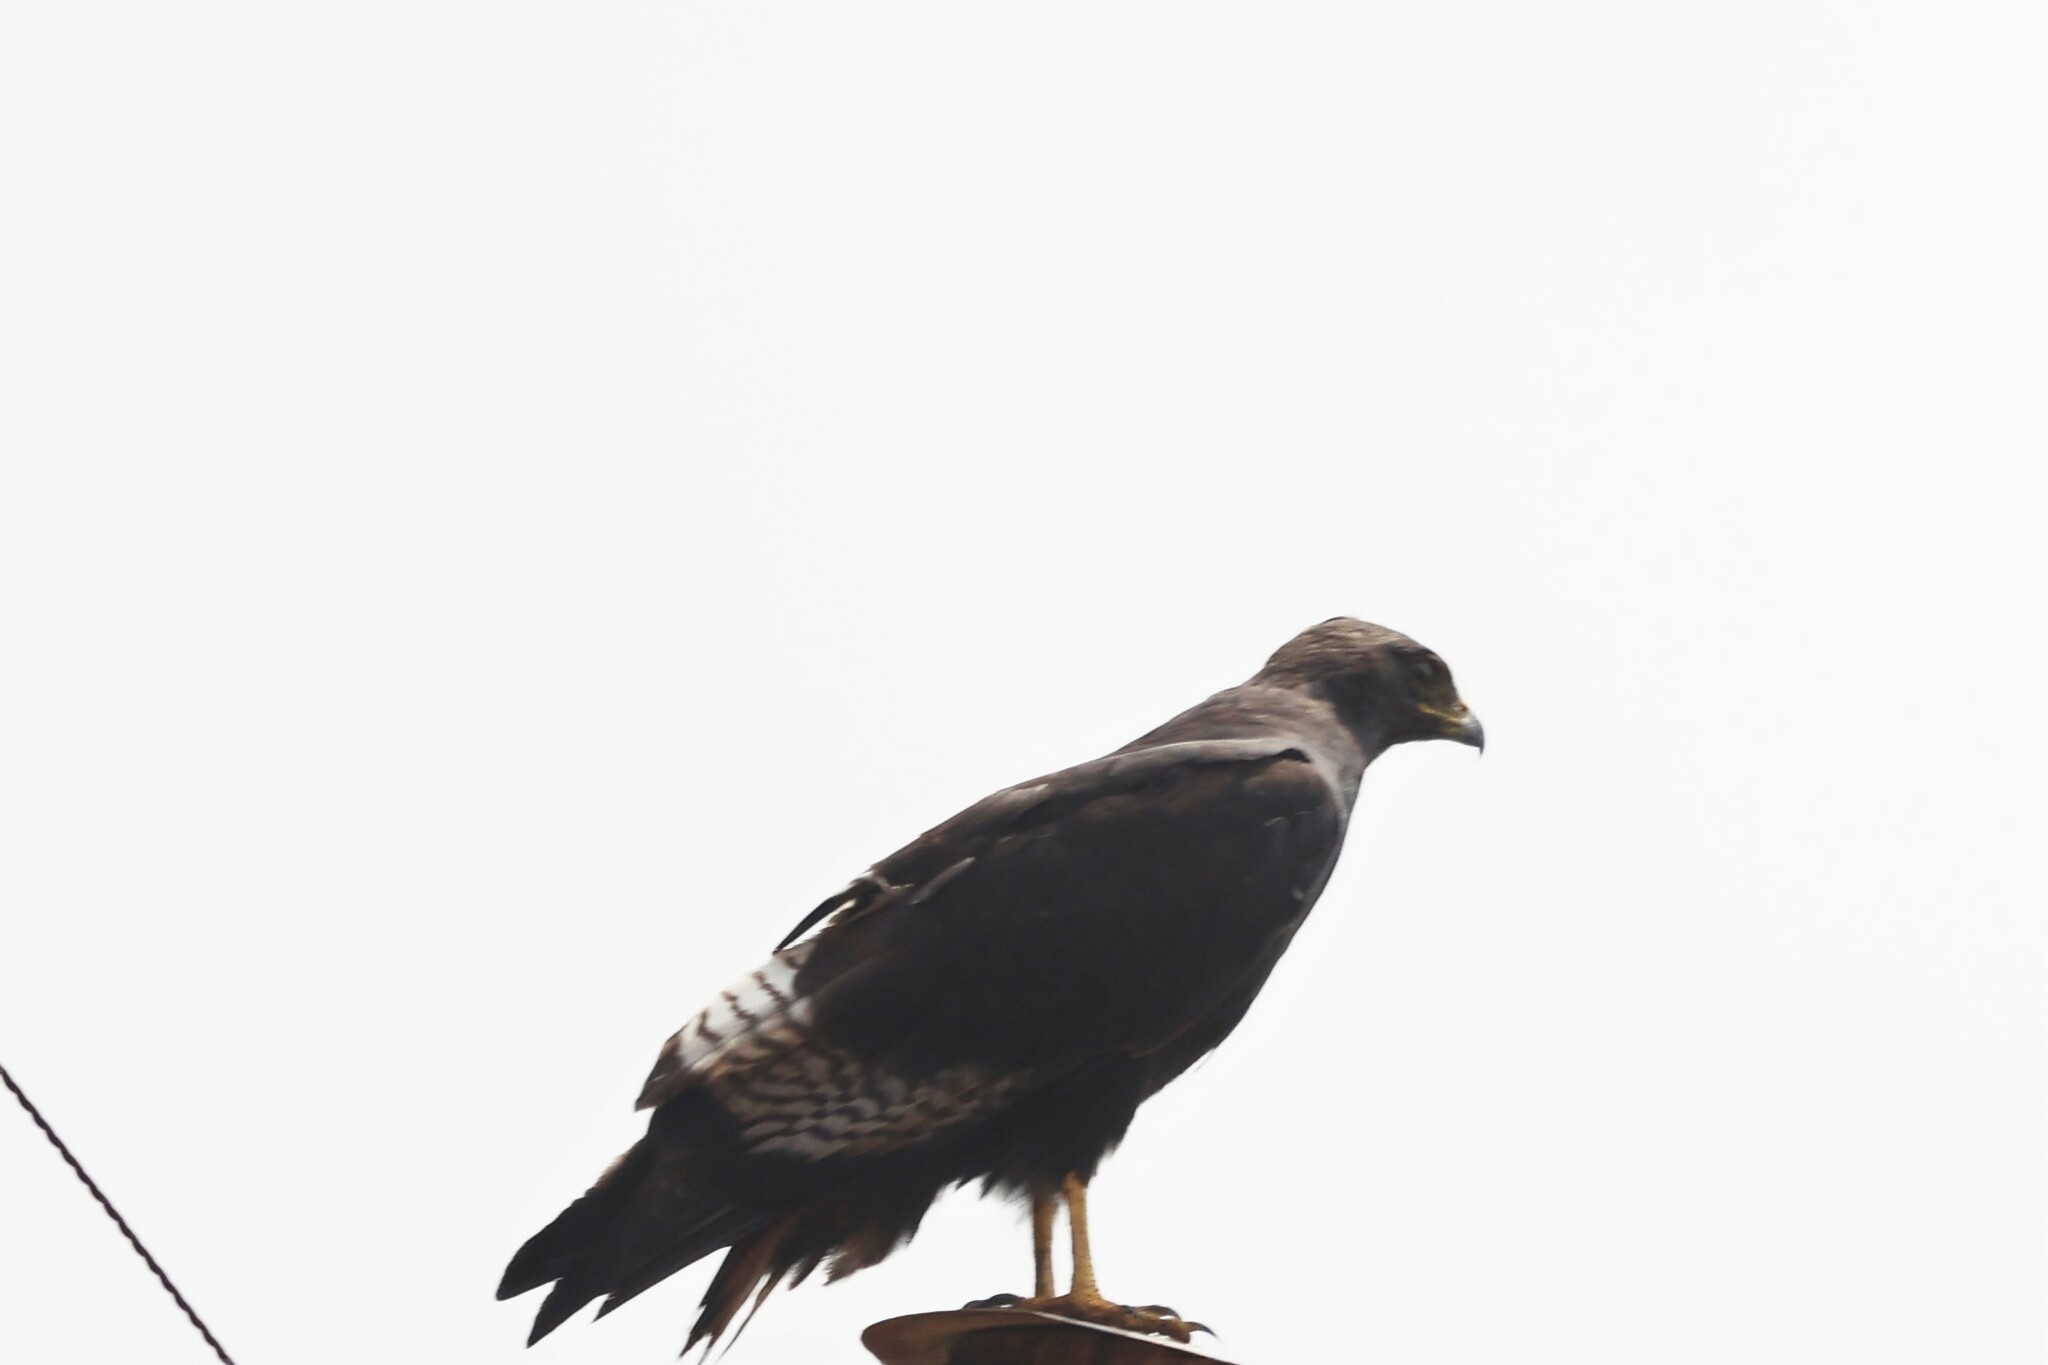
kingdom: Animalia
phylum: Chordata
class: Aves
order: Accipitriformes
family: Accipitridae
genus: Buteo
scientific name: Buteo augur
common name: Augur buzzard
